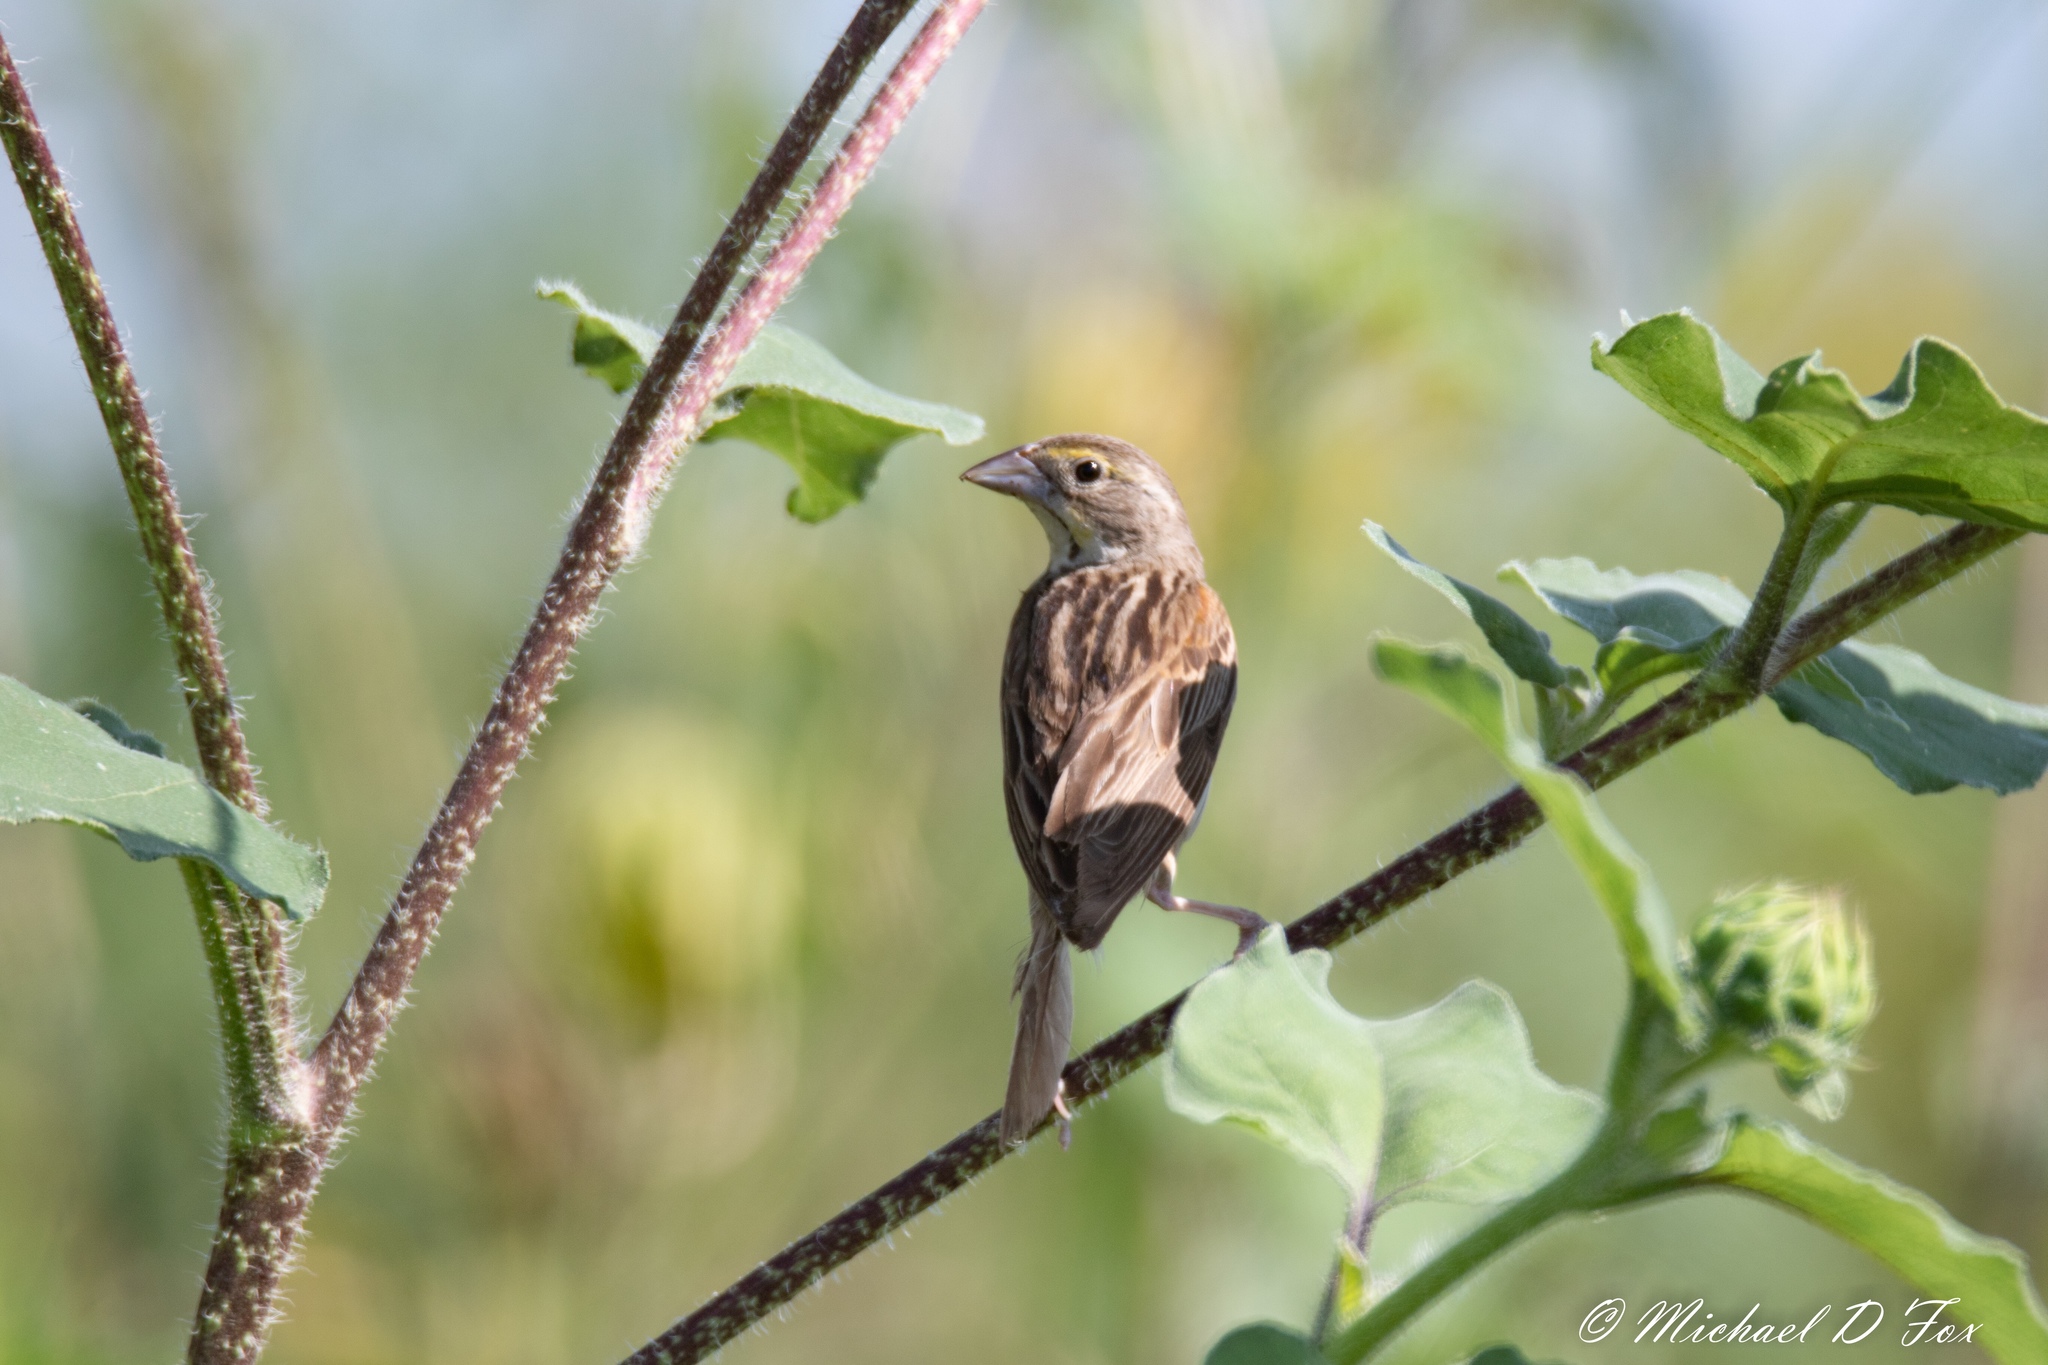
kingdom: Animalia
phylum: Chordata
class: Aves
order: Passeriformes
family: Cardinalidae
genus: Spiza
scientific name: Spiza americana
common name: Dickcissel
